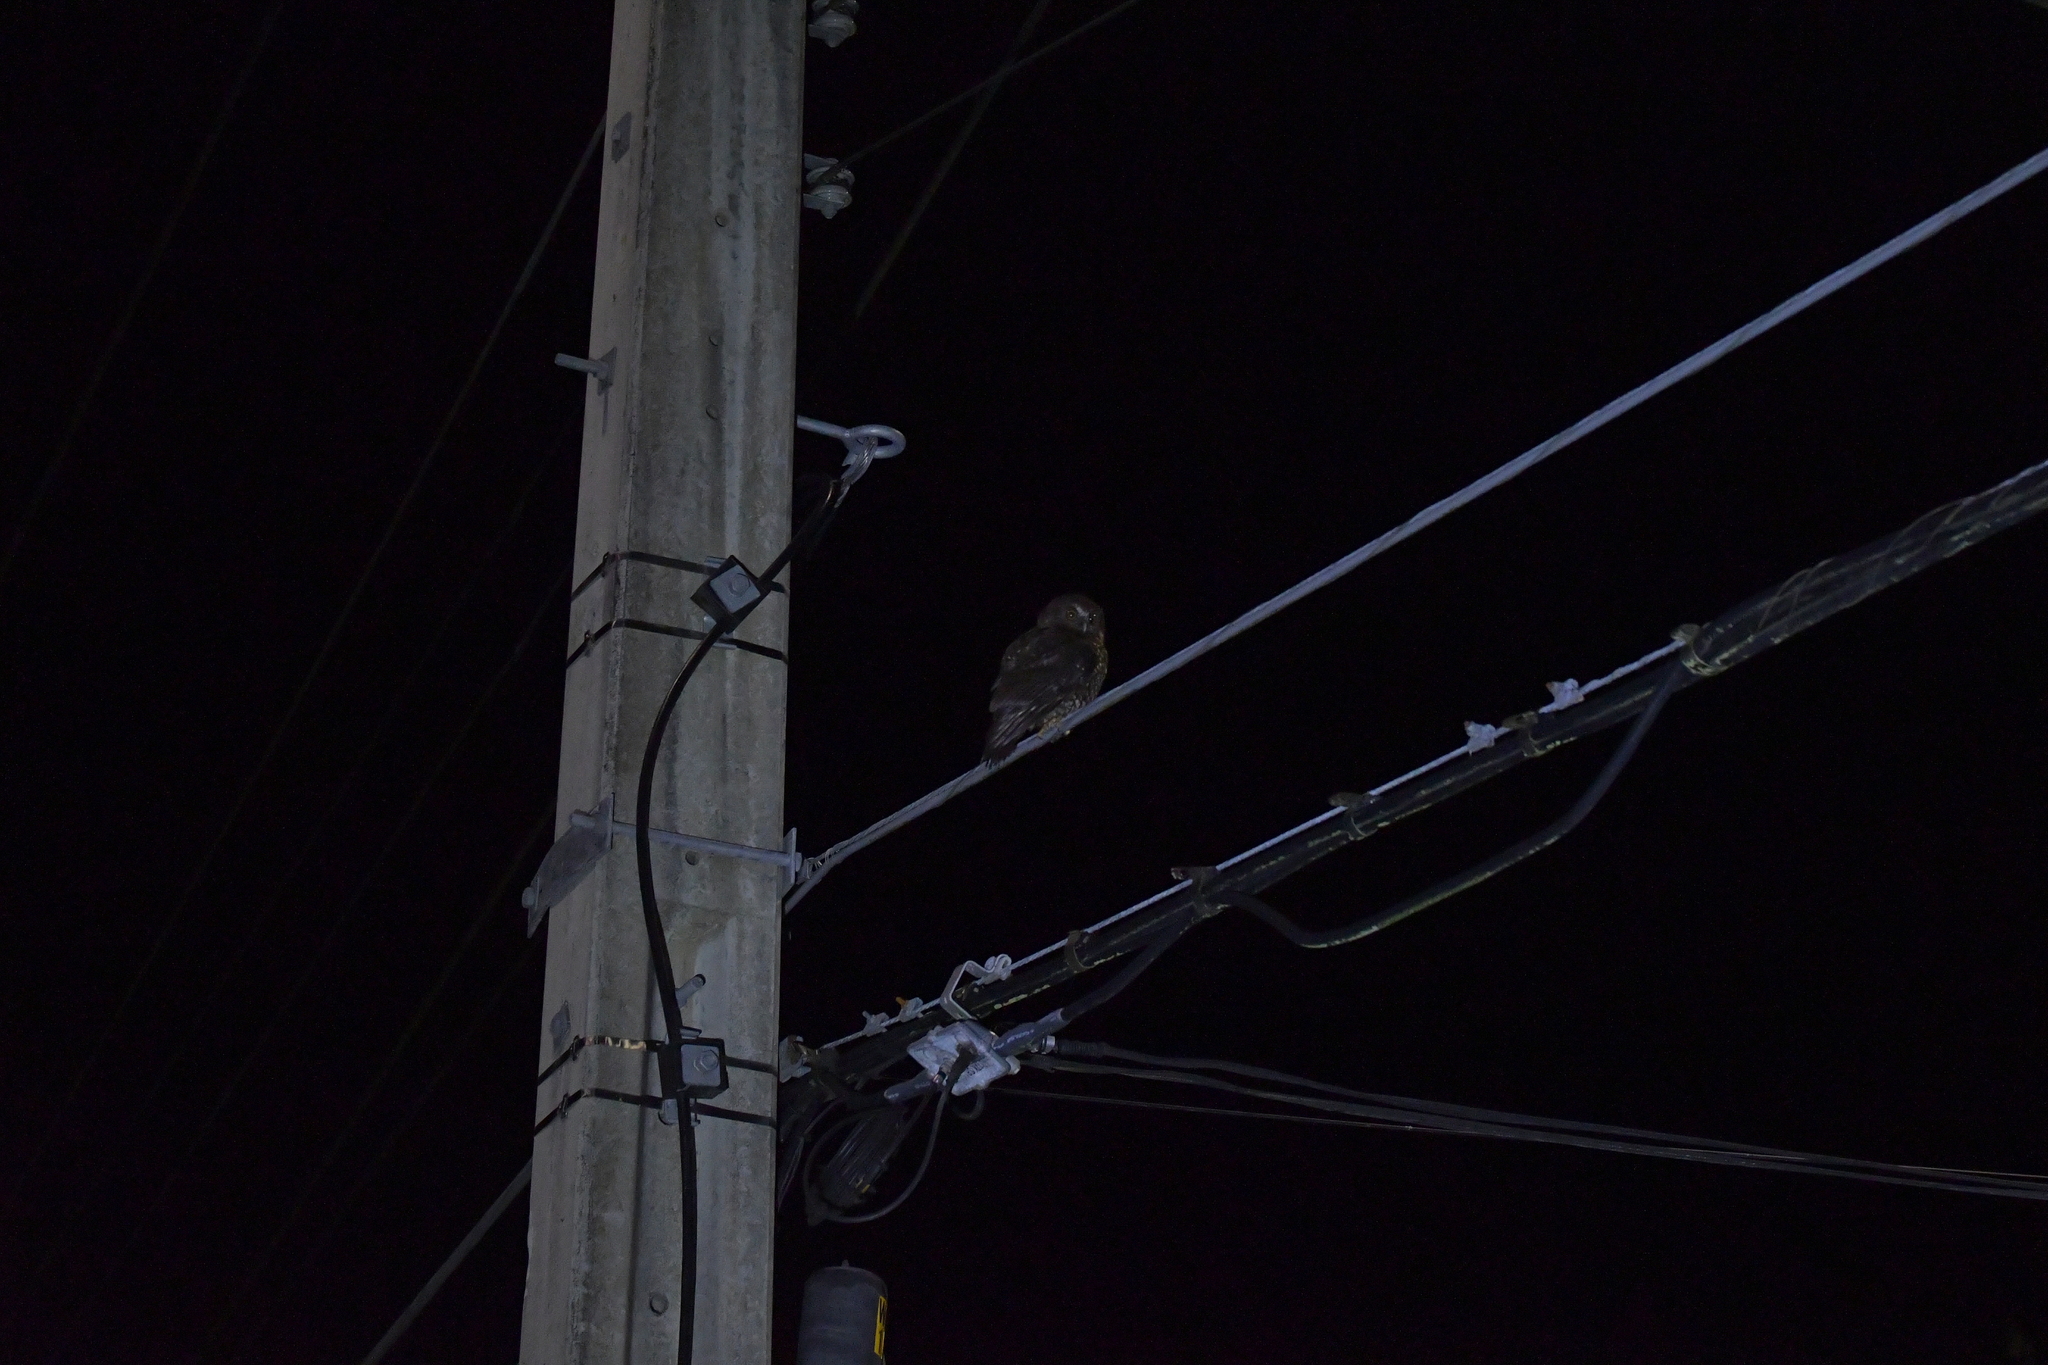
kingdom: Animalia
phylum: Chordata
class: Aves
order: Strigiformes
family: Strigidae
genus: Ninox
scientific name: Ninox novaeseelandiae
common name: Morepork
